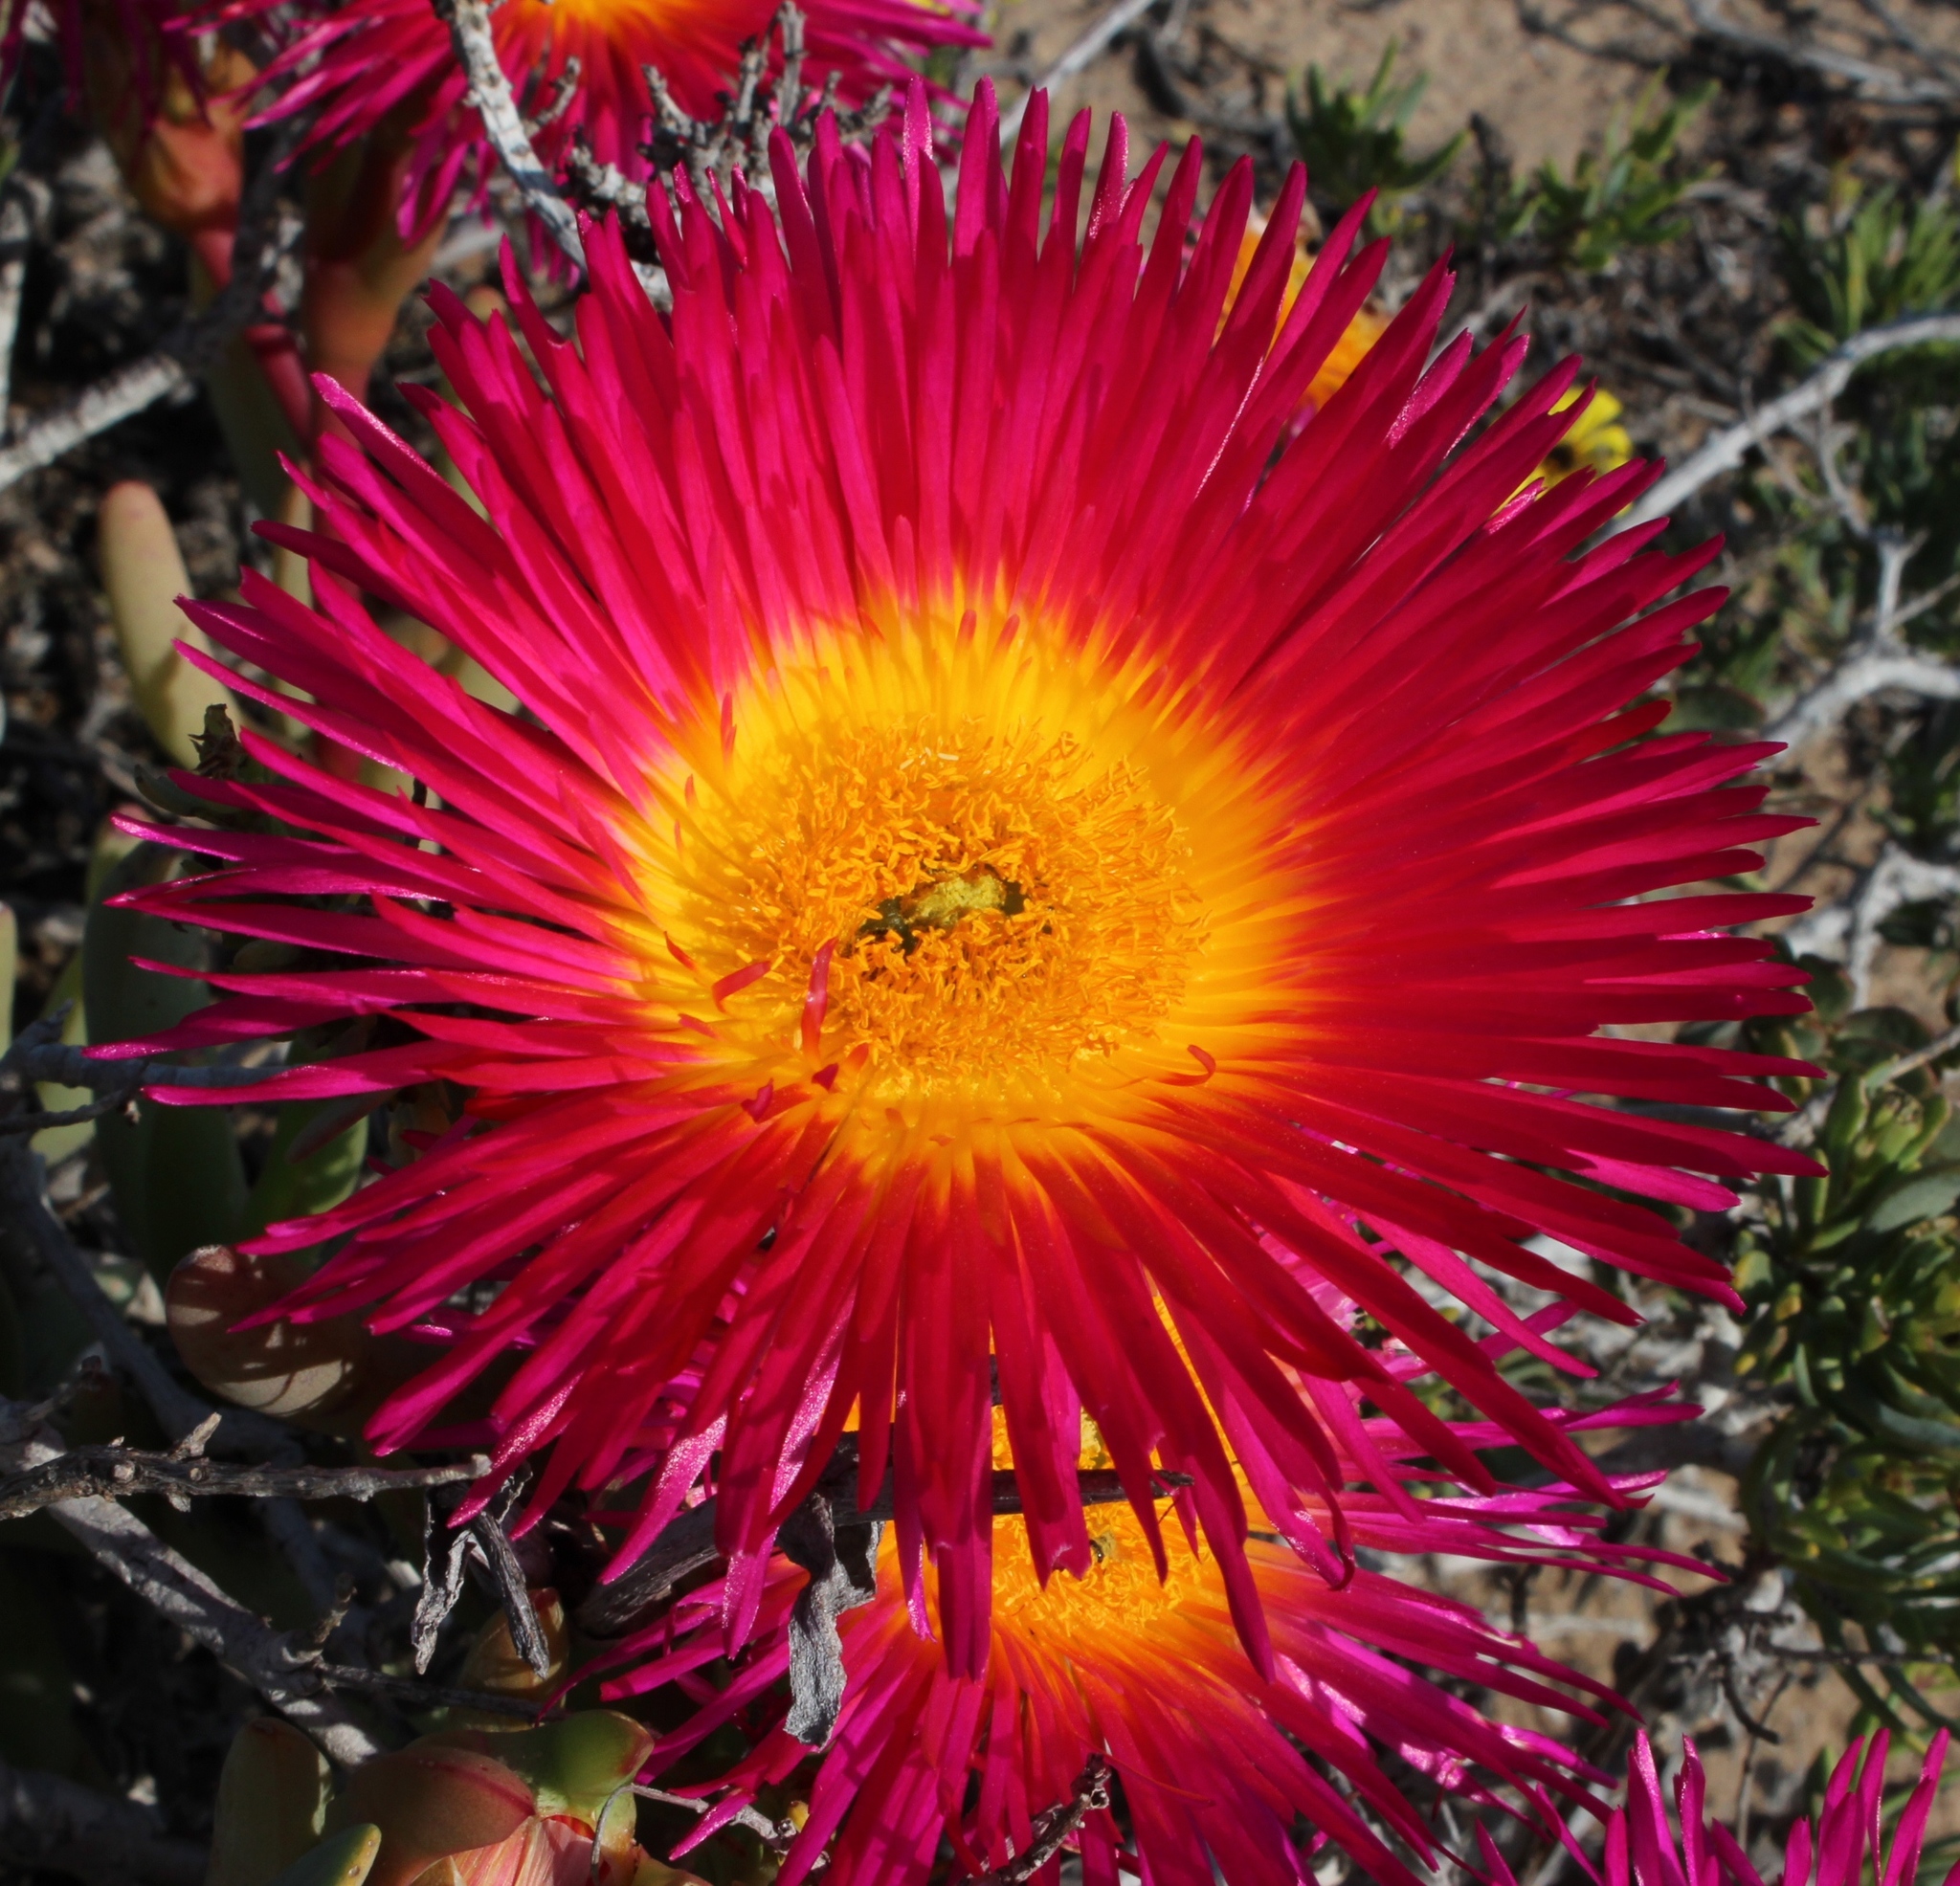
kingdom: Plantae
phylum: Tracheophyta
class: Magnoliopsida
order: Caryophyllales
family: Aizoaceae
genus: Jordaaniella
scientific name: Jordaaniella spongiosa
